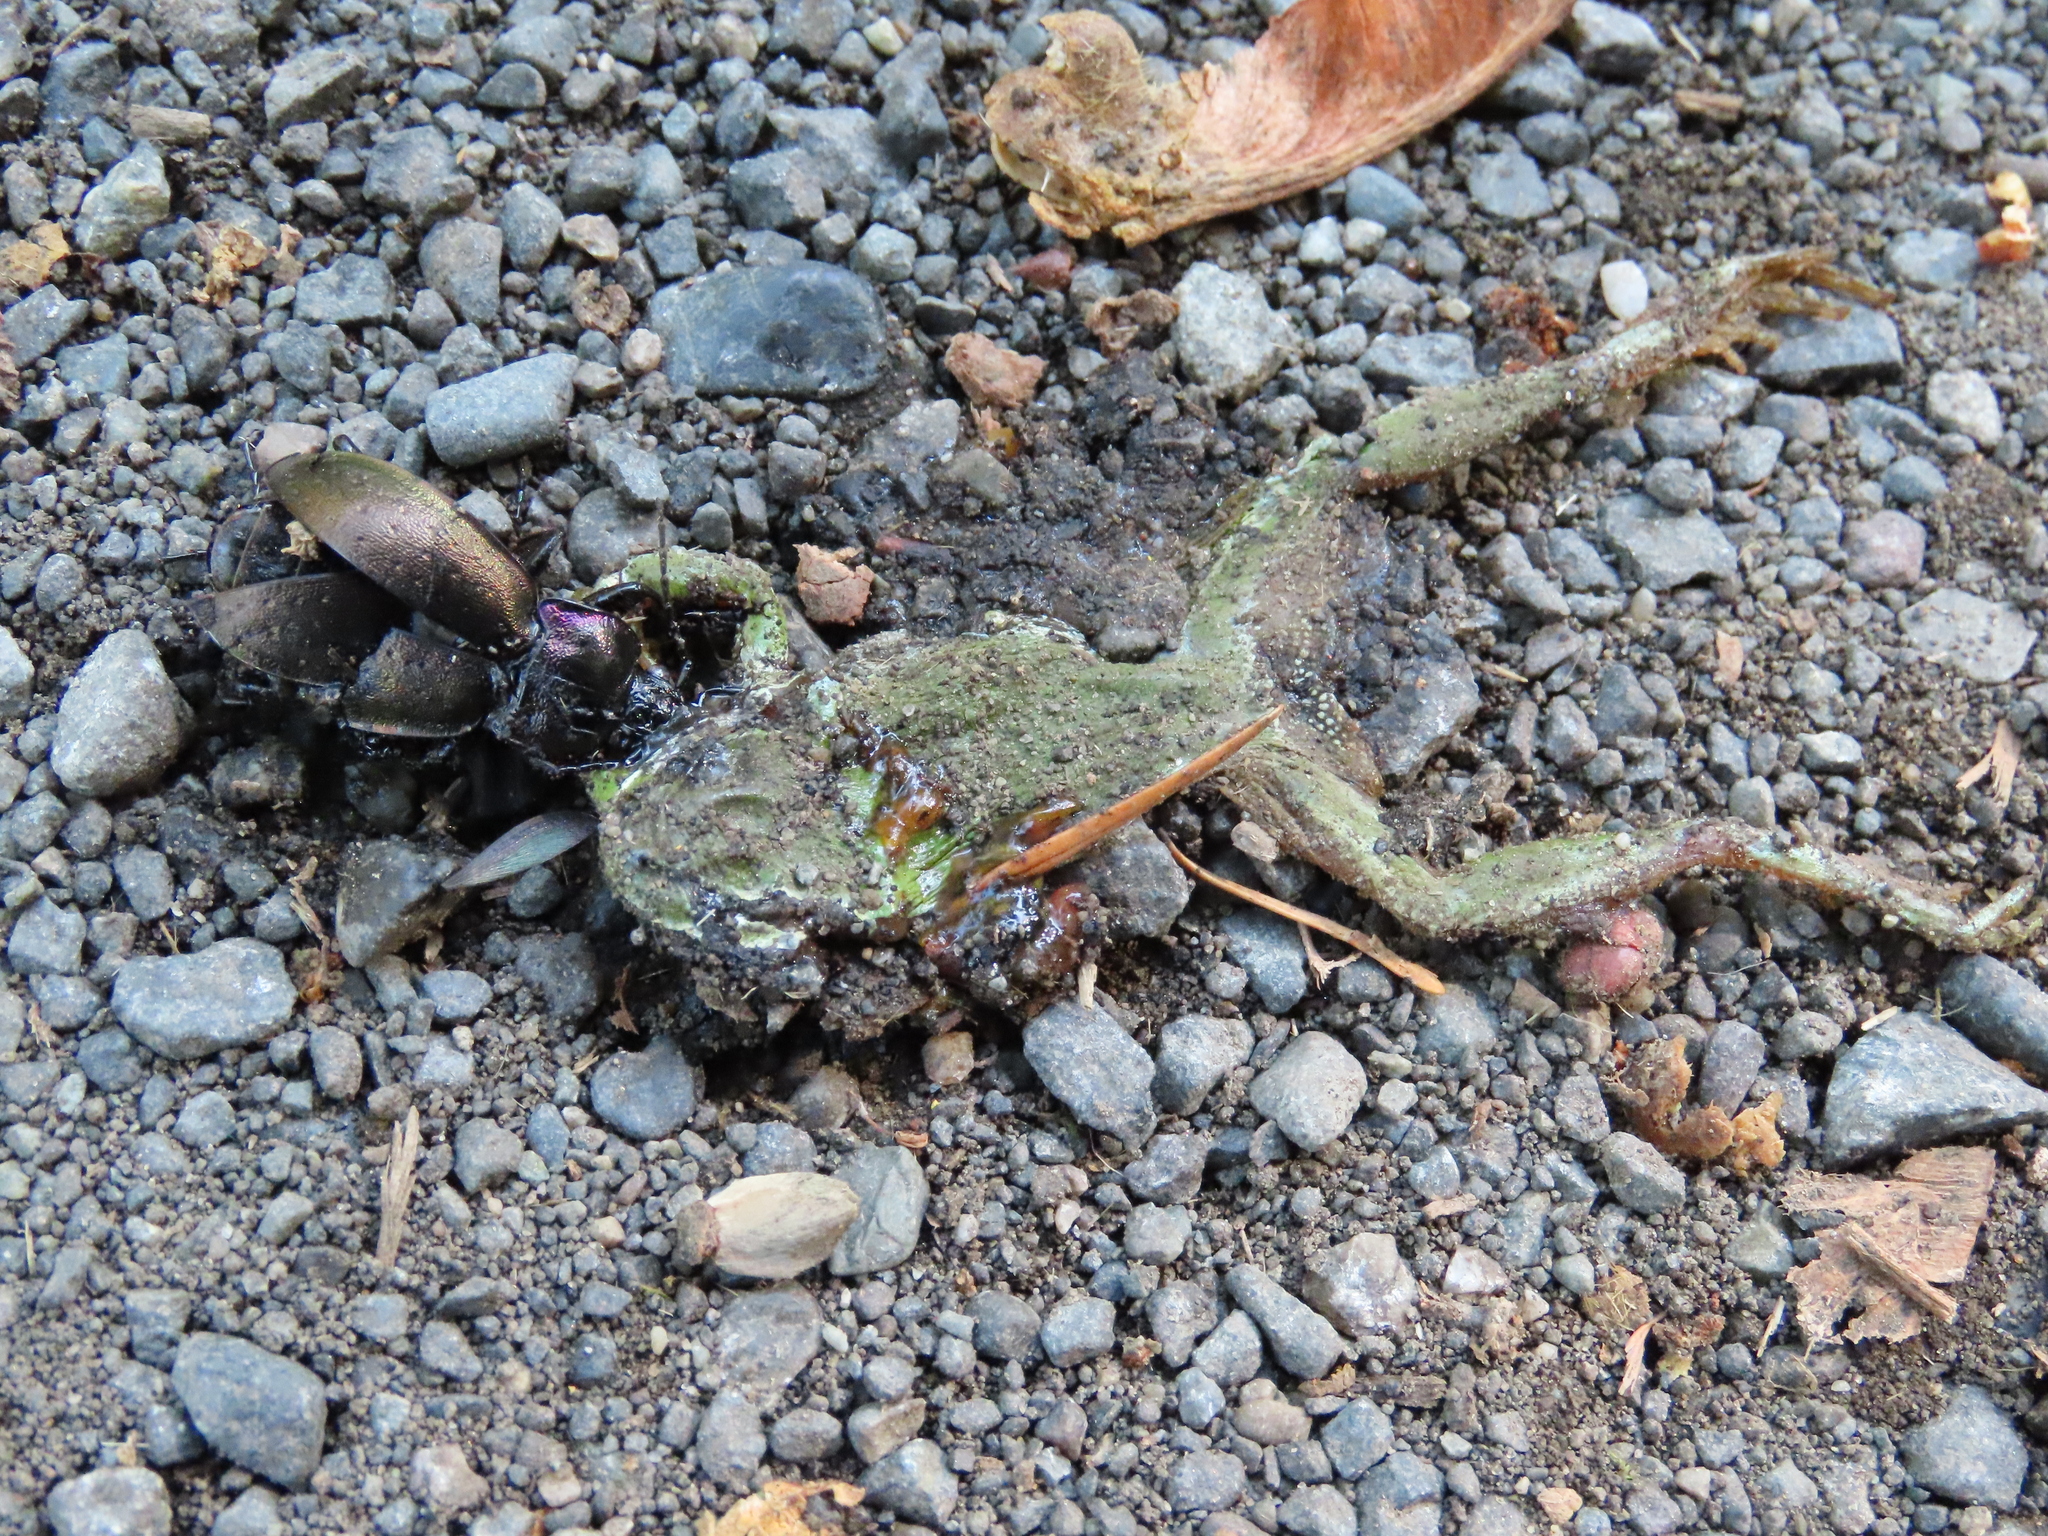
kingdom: Animalia
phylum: Chordata
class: Amphibia
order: Anura
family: Hylidae
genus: Pseudacris
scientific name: Pseudacris regilla
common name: Pacific chorus frog
